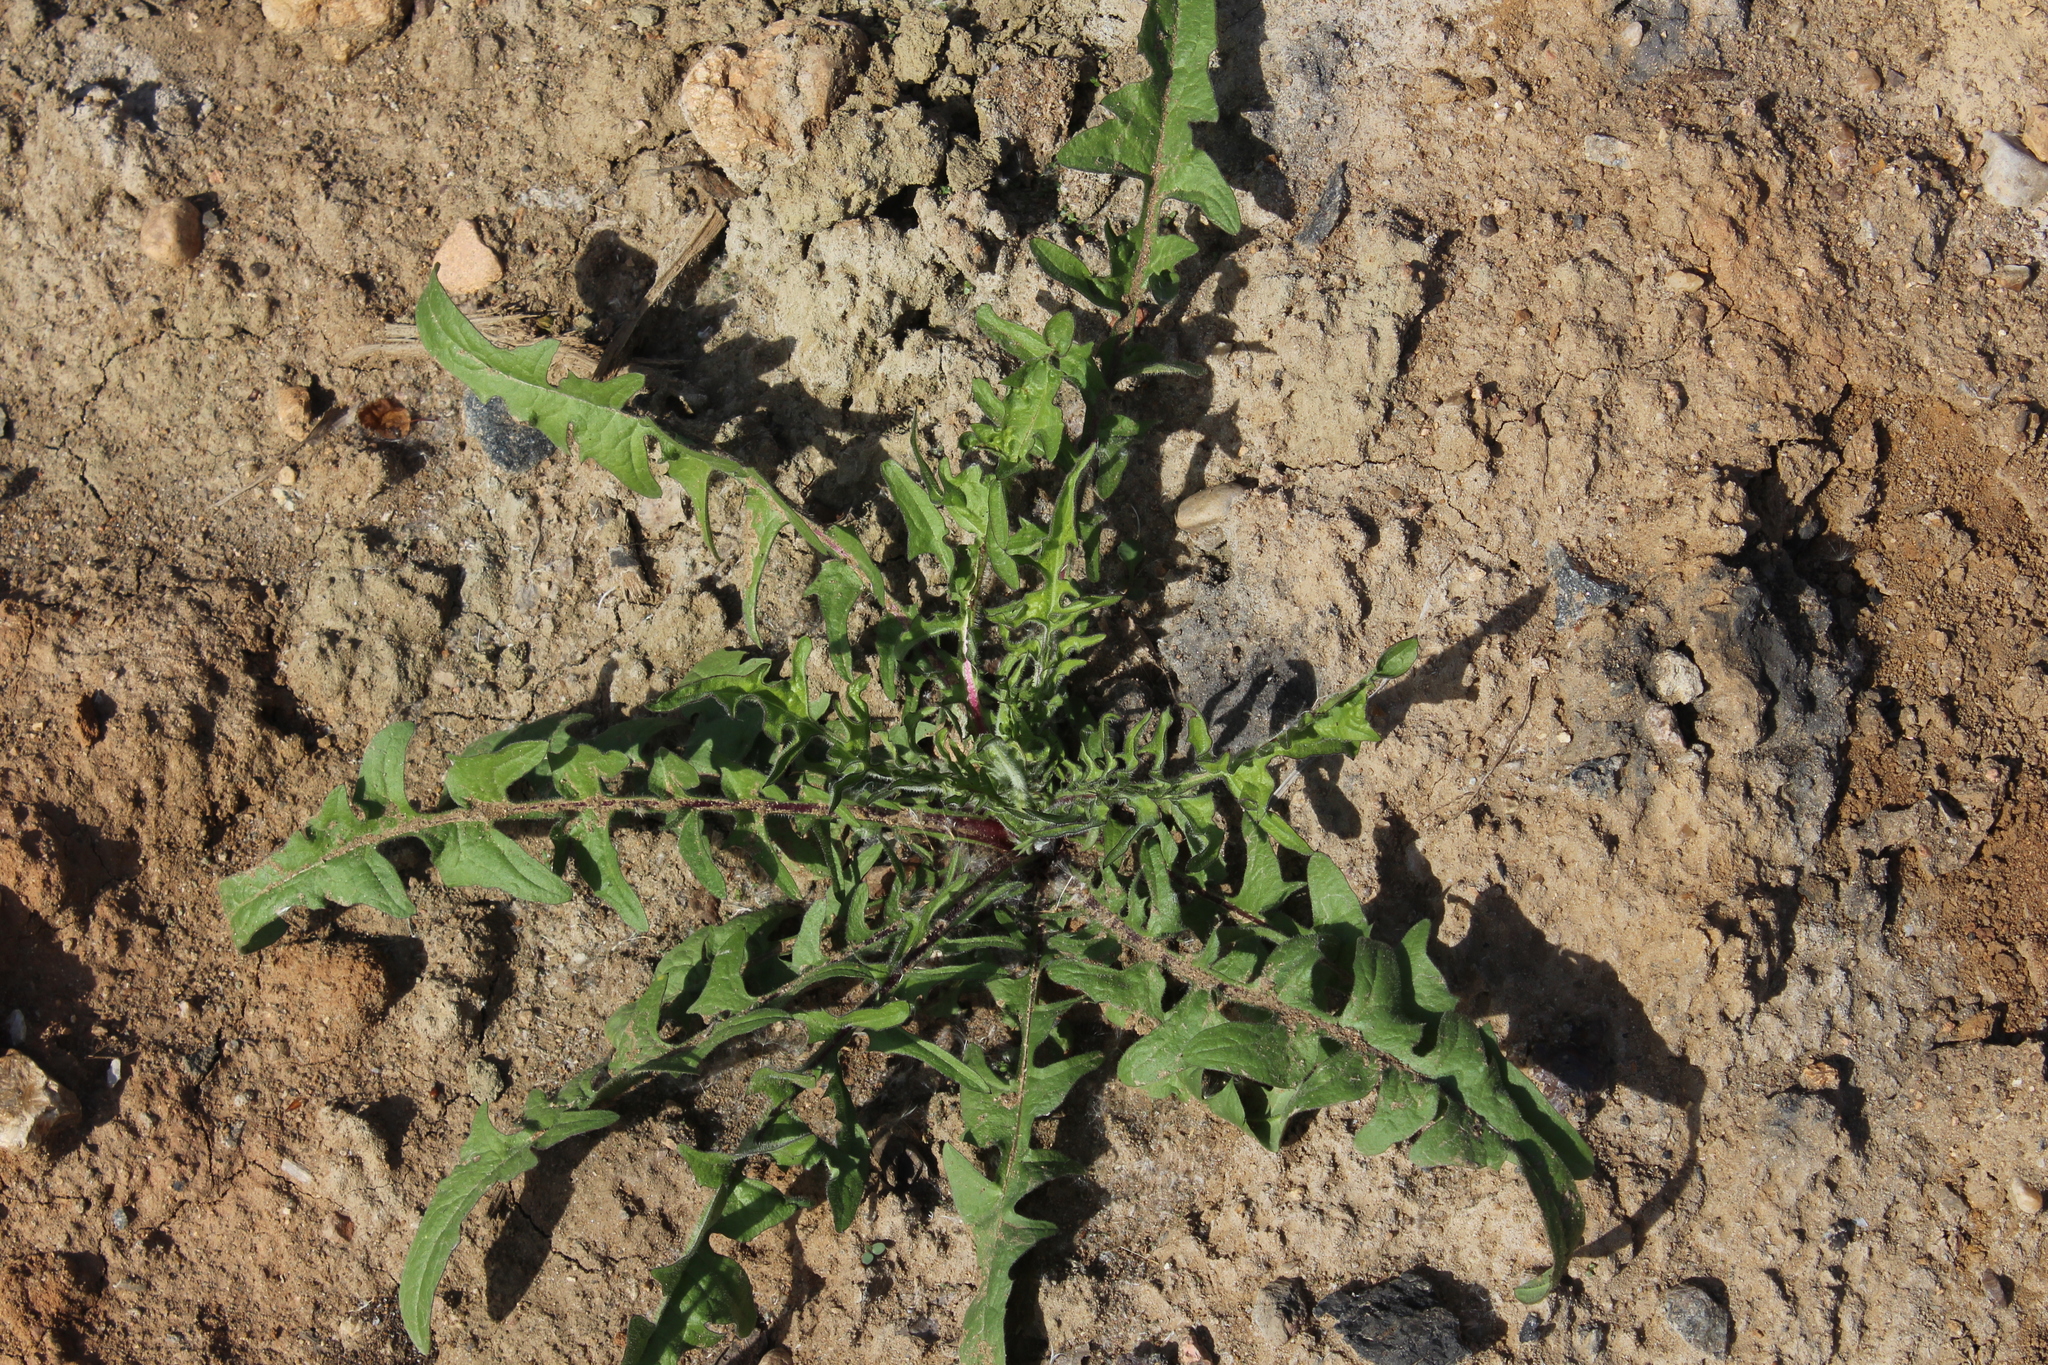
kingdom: Plantae
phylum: Tracheophyta
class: Magnoliopsida
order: Asterales
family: Asteraceae
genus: Crepis
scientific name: Crepis biennis
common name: Rough hawk's-beard
